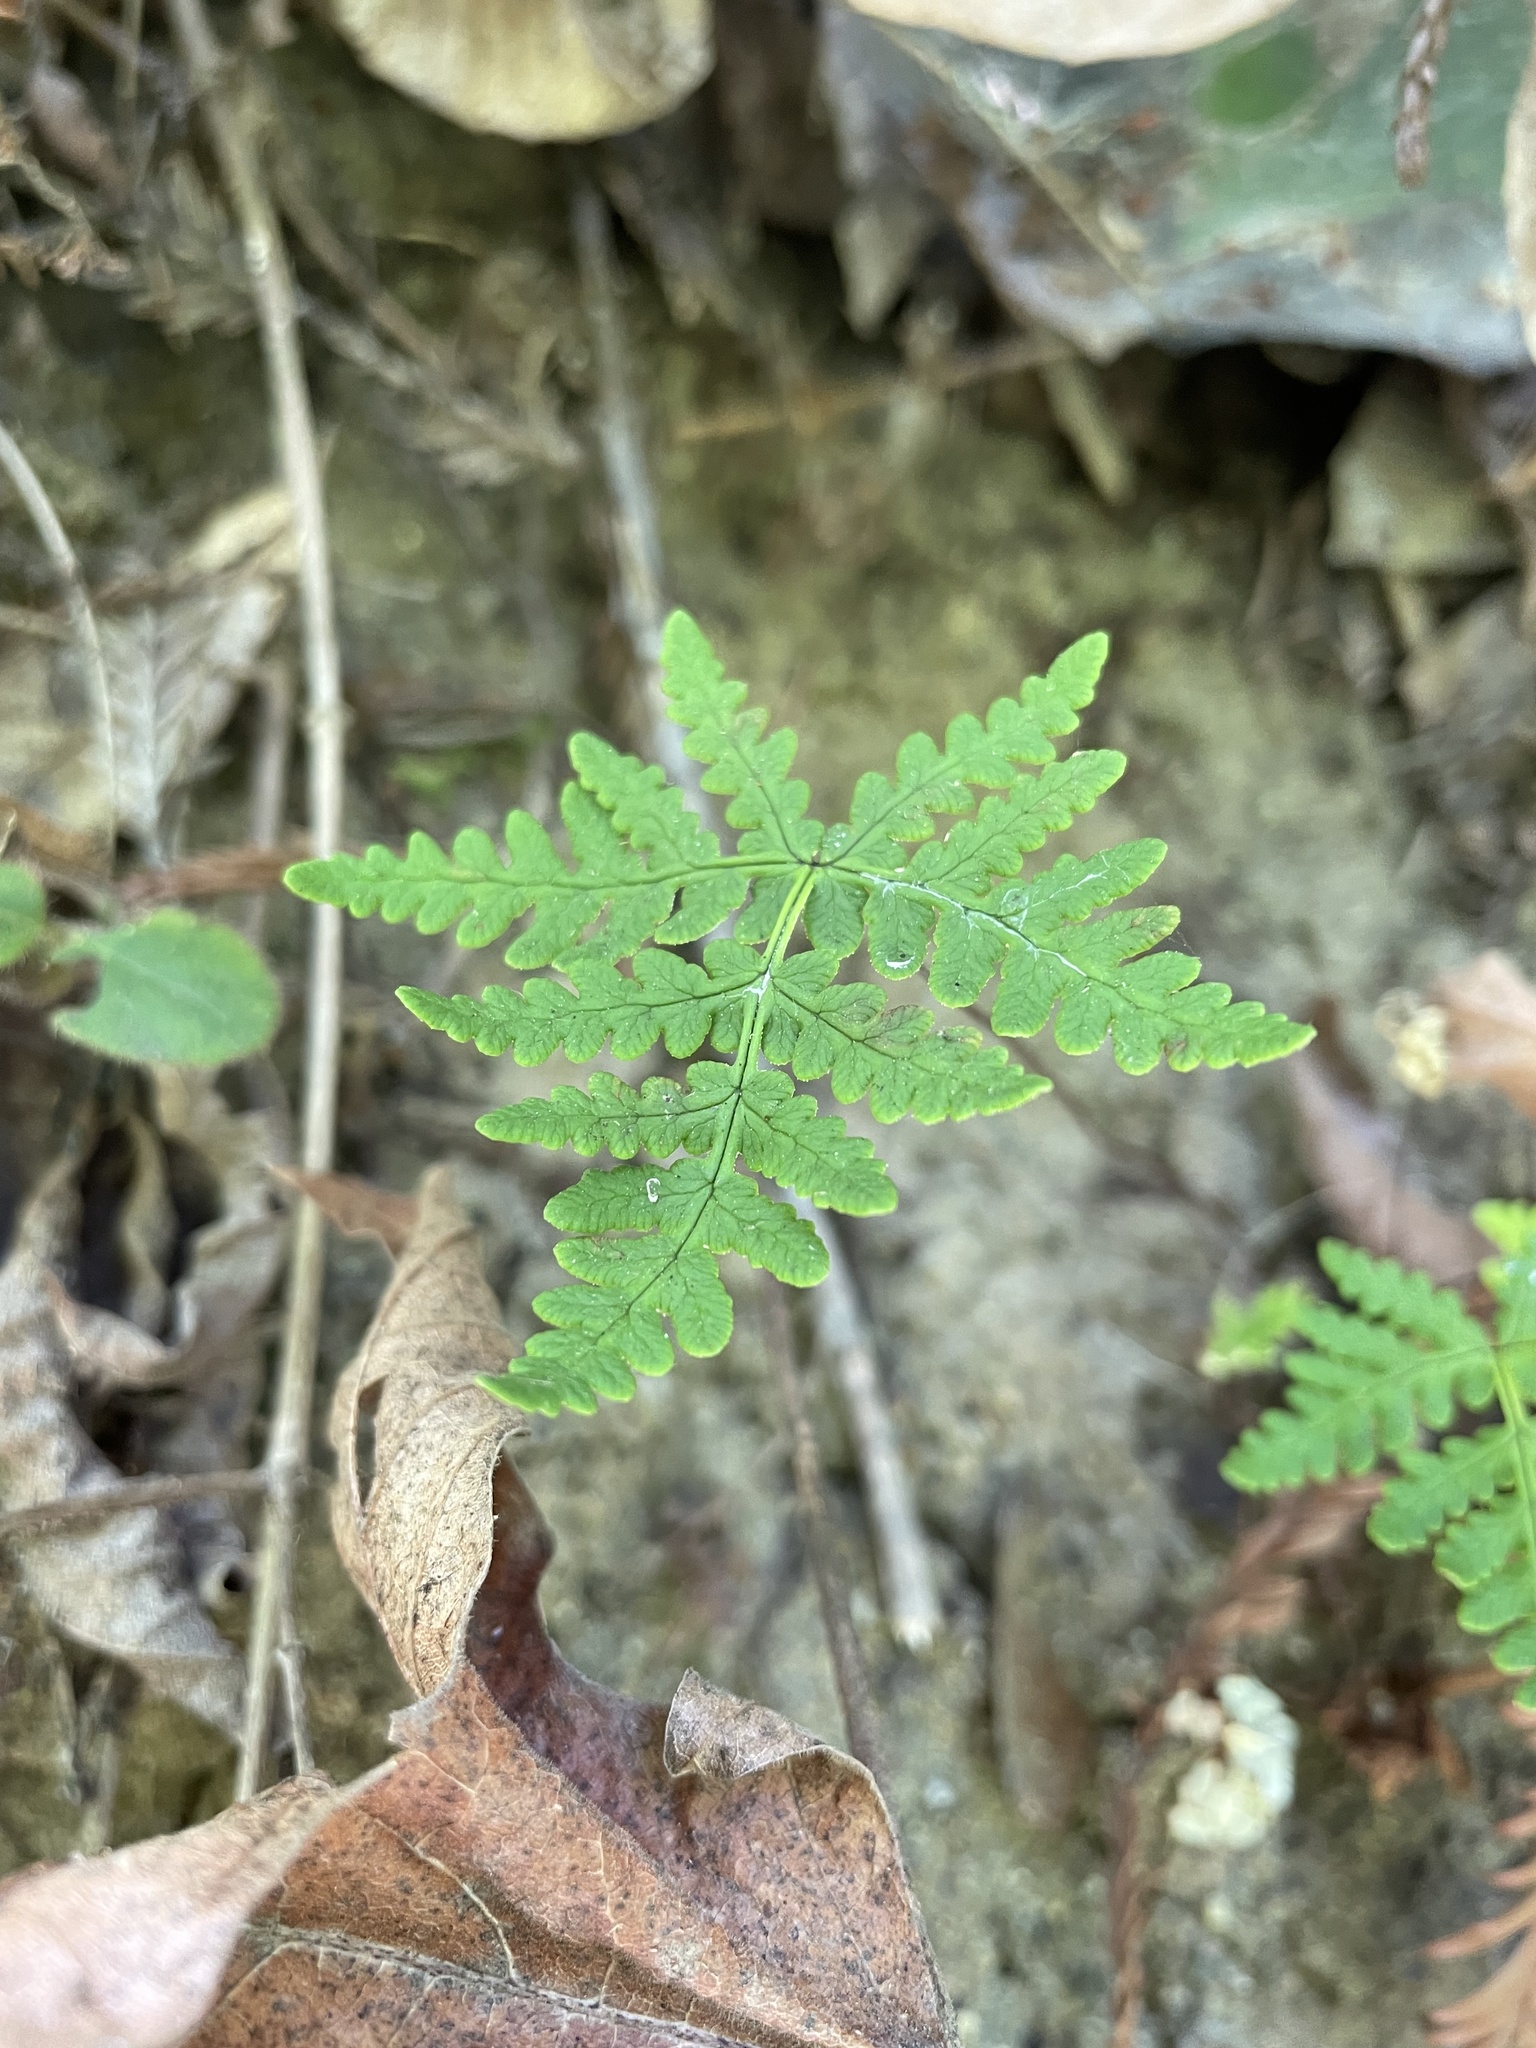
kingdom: Plantae
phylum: Tracheophyta
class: Polypodiopsida
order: Polypodiales
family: Pteridaceae
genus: Pentagramma
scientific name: Pentagramma triangularis
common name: Gold fern
